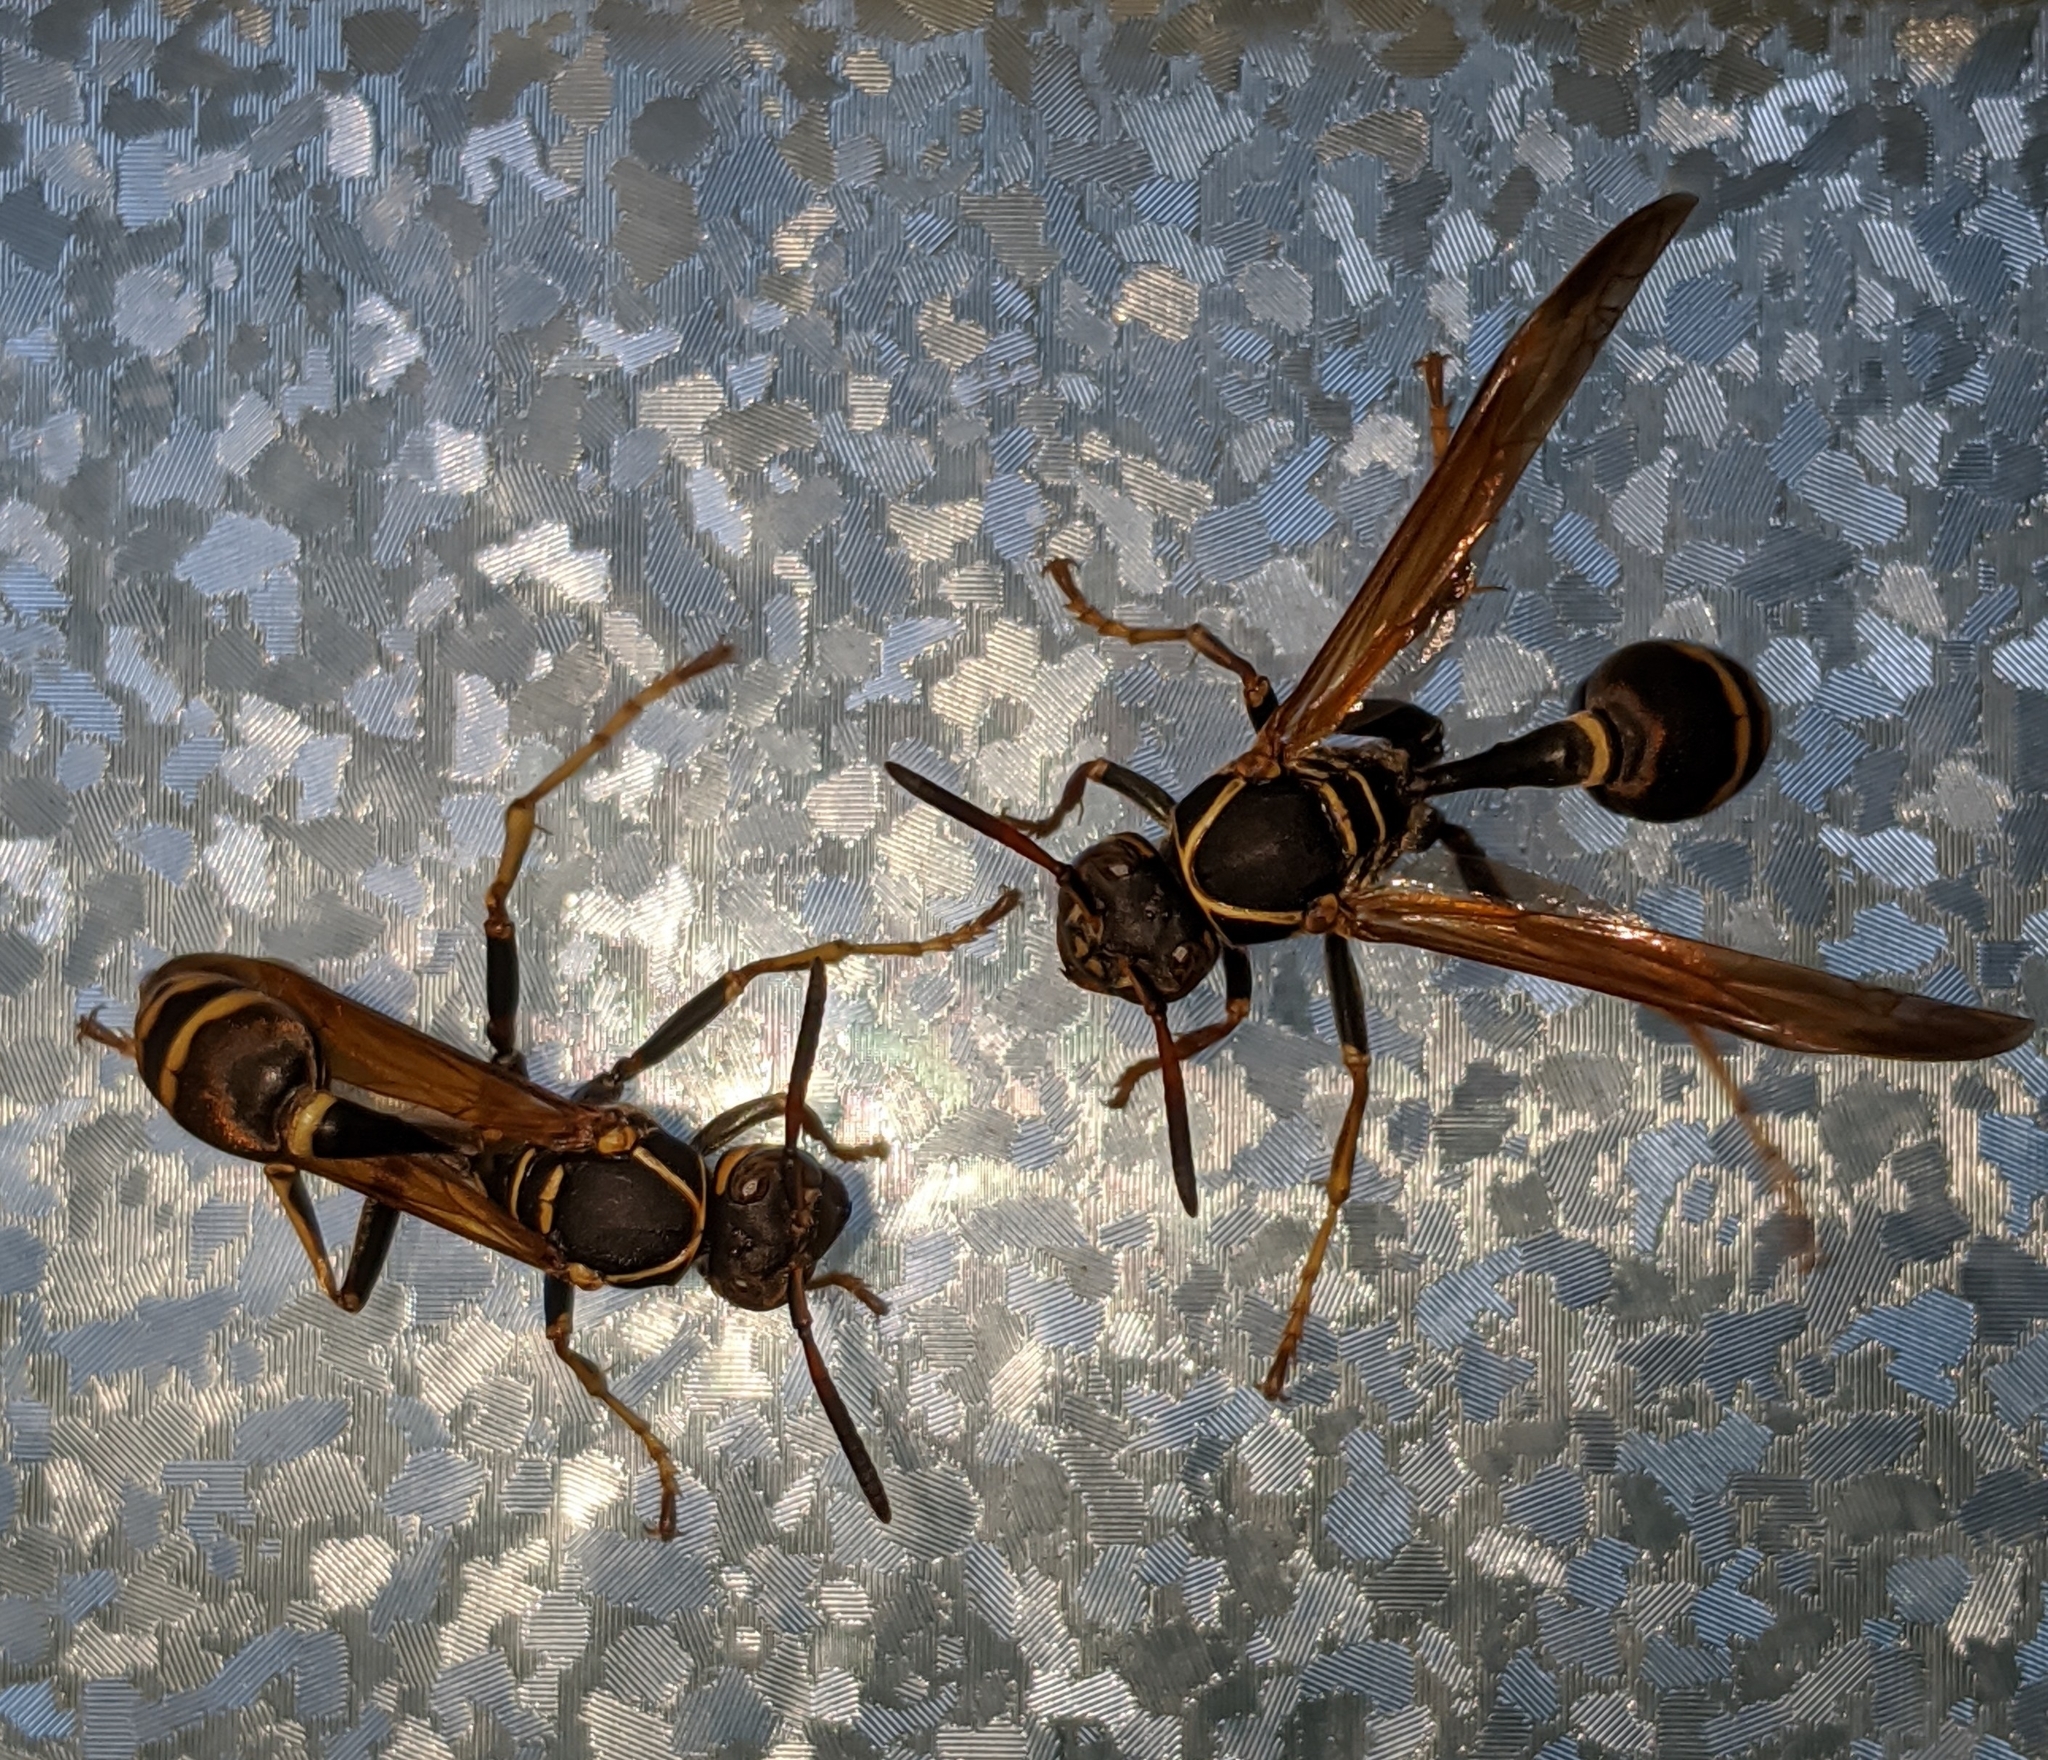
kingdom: Animalia
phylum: Arthropoda
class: Insecta
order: Hymenoptera
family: Vespidae
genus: Mischocyttarus
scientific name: Mischocyttarus flavitarsis
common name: Wasp
